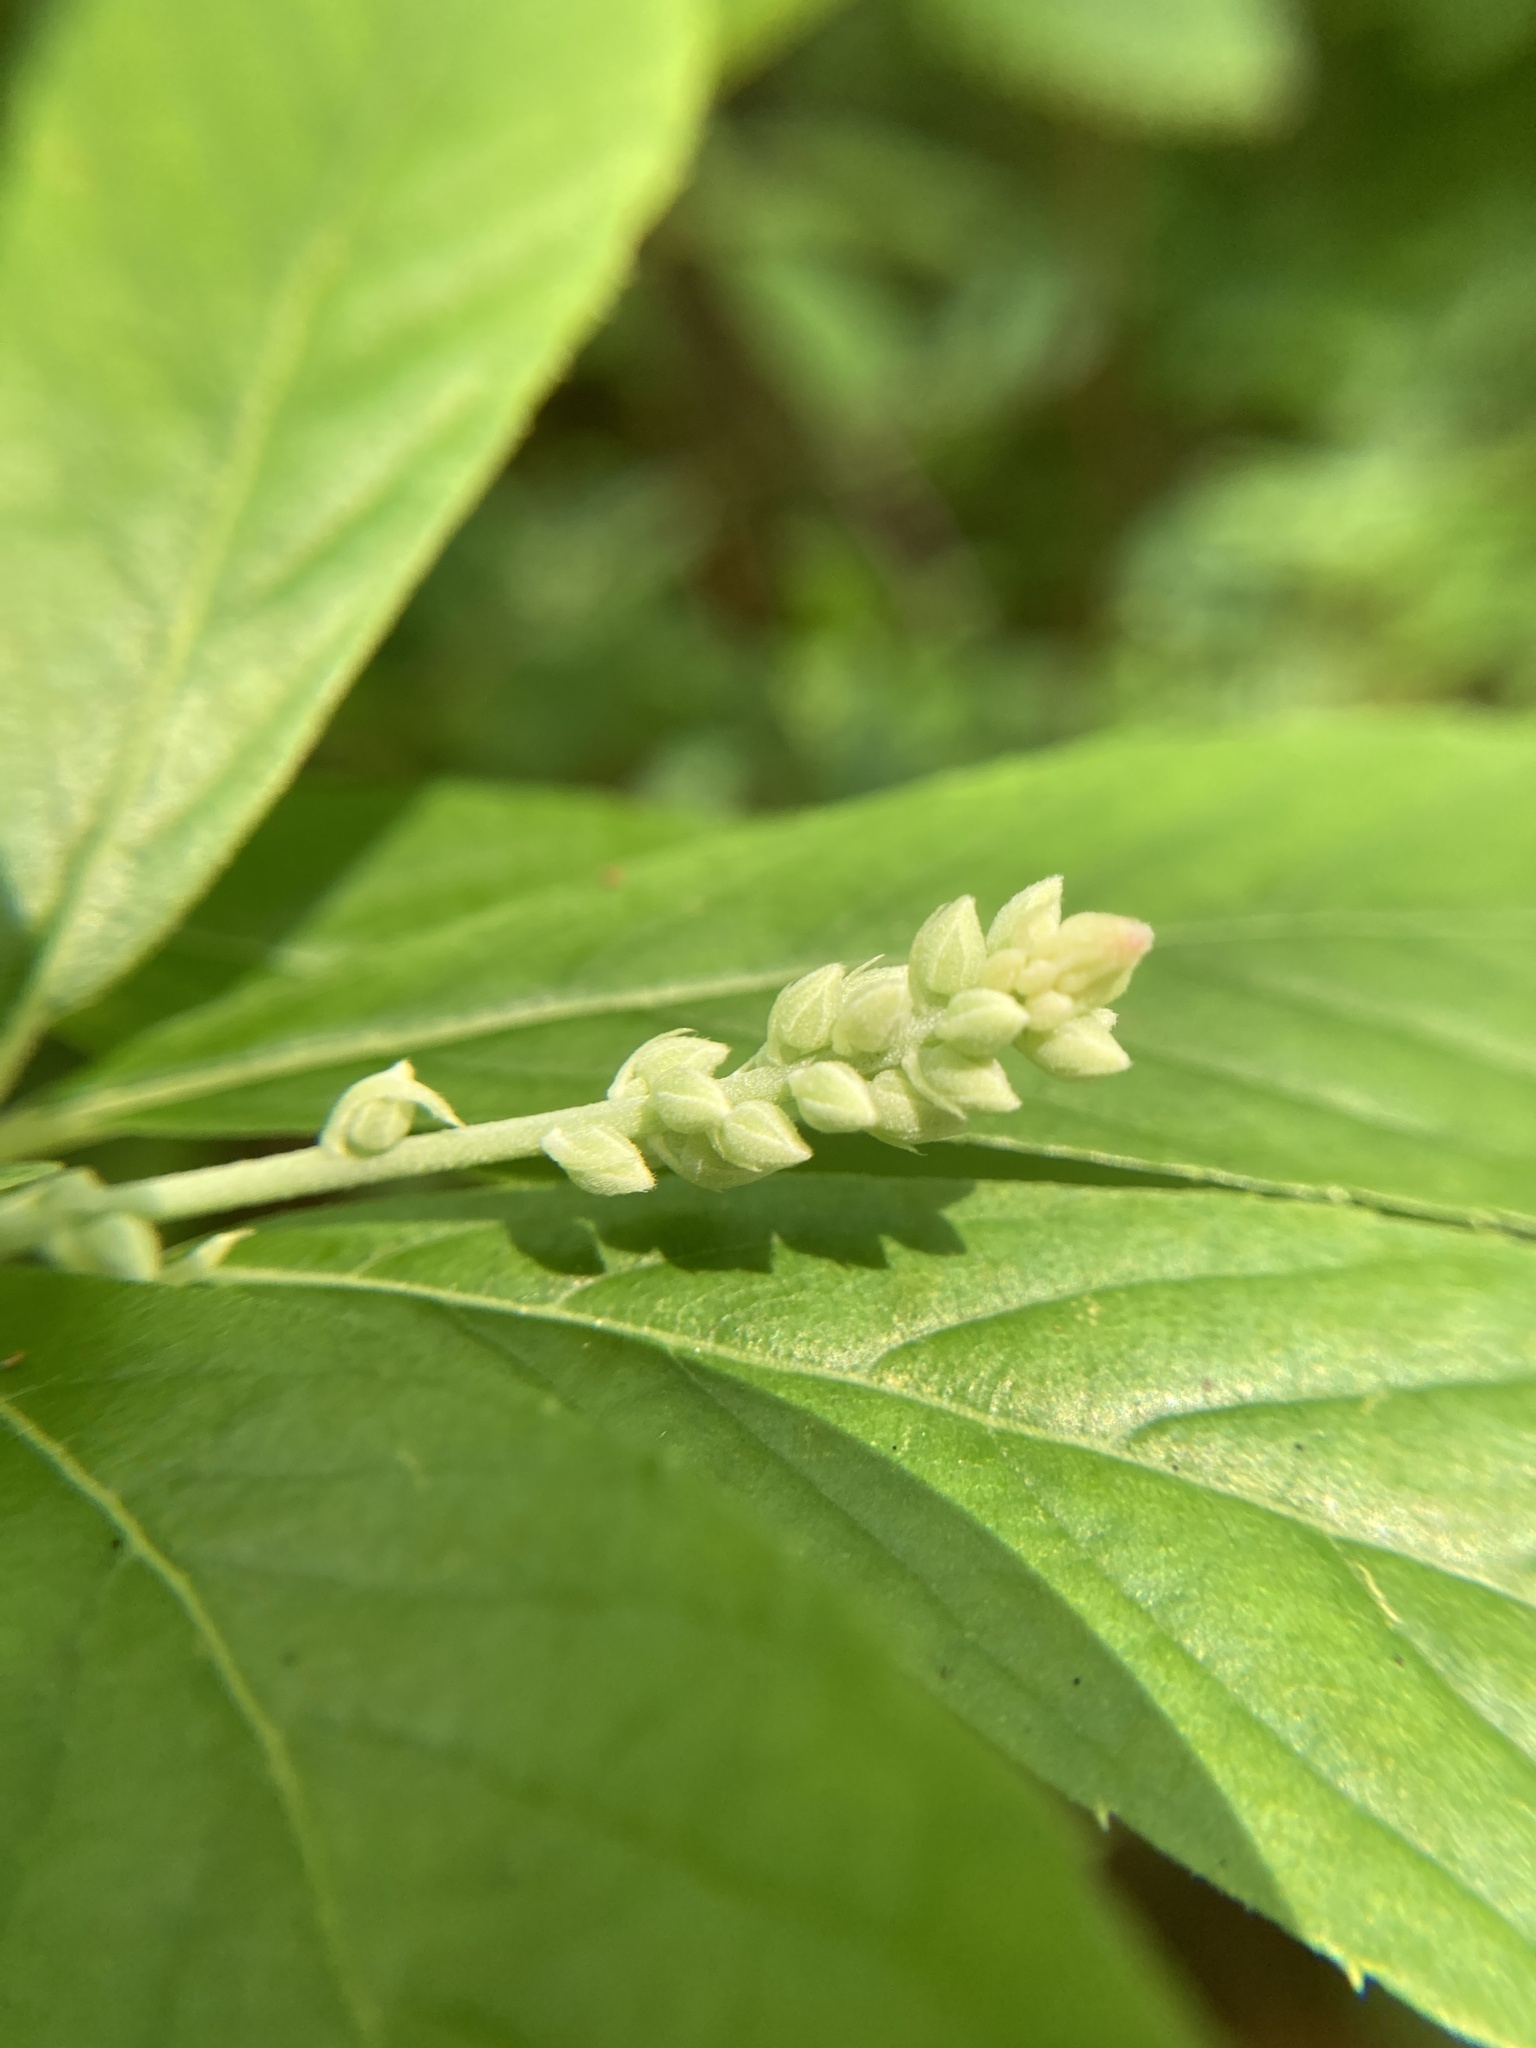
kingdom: Plantae
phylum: Tracheophyta
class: Magnoliopsida
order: Ericales
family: Clethraceae
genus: Clethra
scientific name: Clethra alnifolia
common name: Sweet pepperbush
